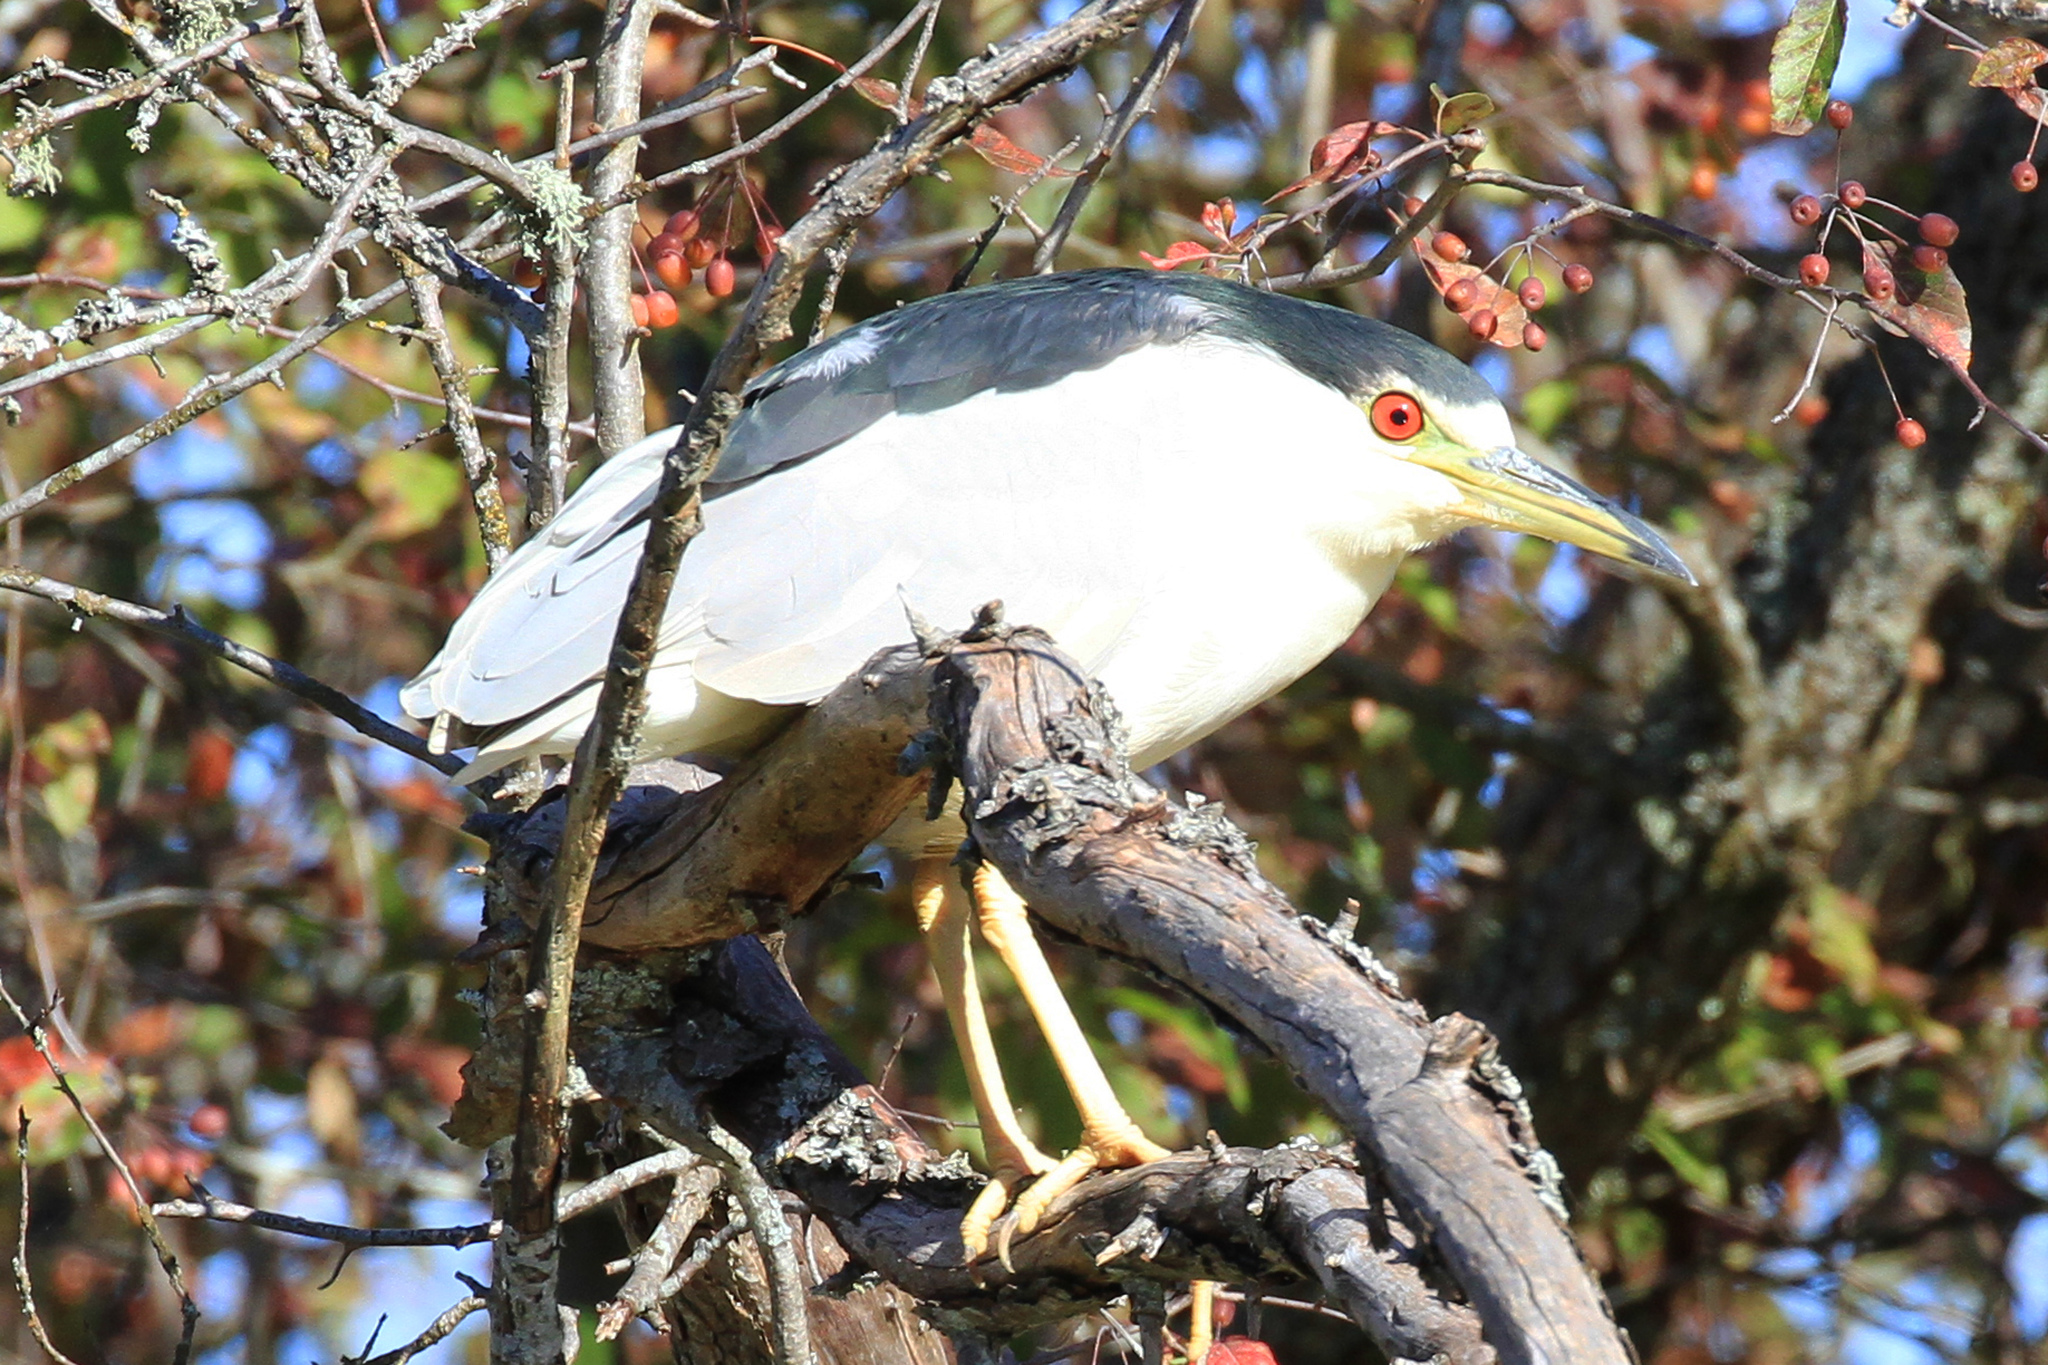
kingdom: Animalia
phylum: Chordata
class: Aves
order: Pelecaniformes
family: Ardeidae
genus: Nycticorax
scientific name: Nycticorax nycticorax
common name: Black-crowned night heron
